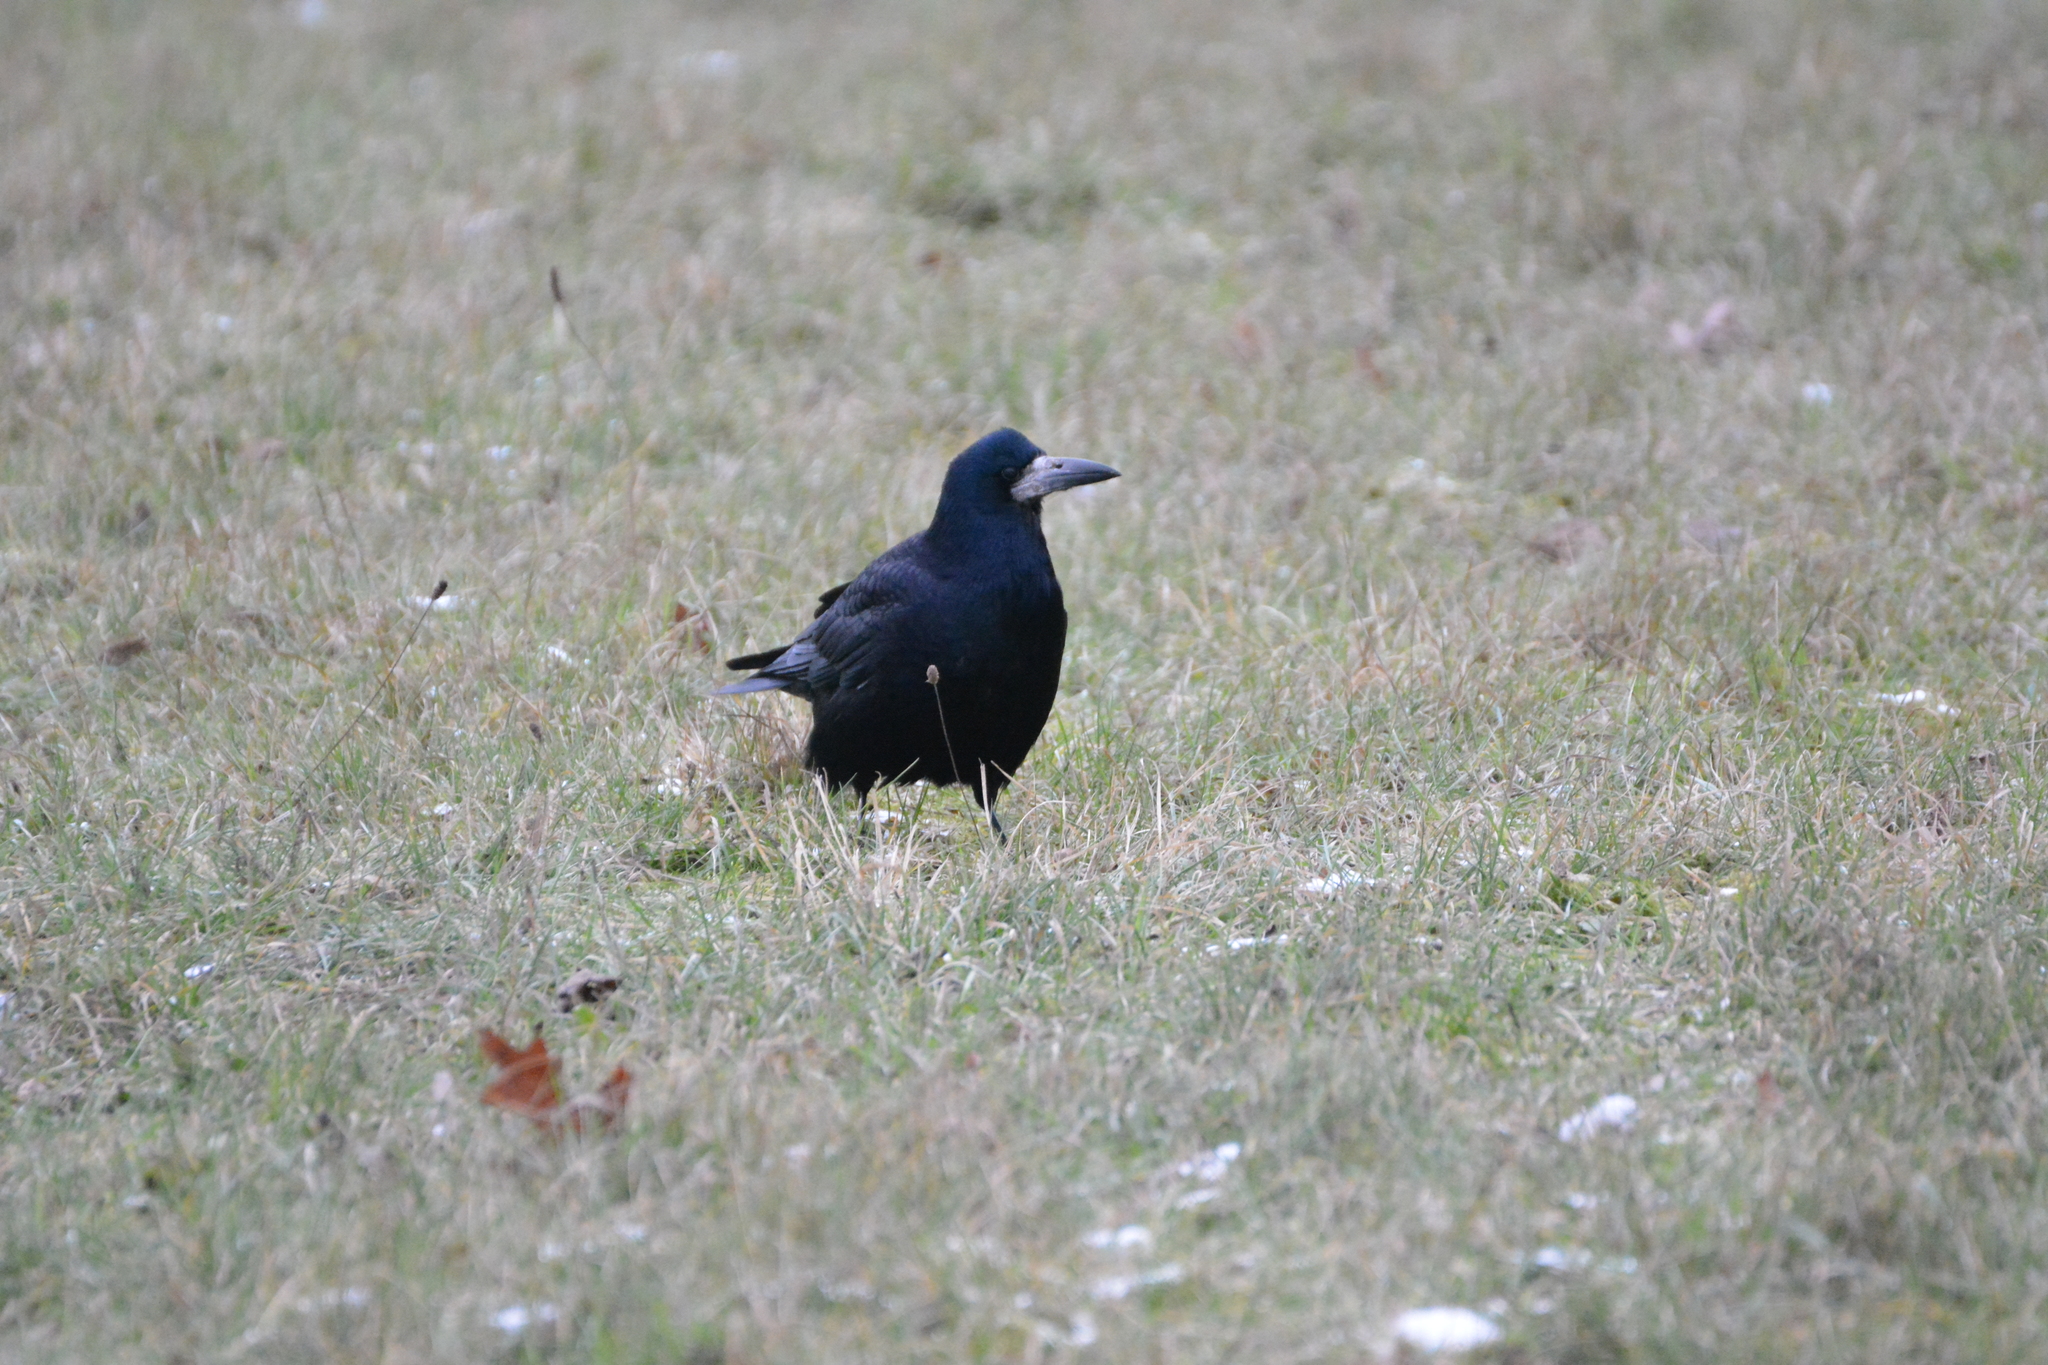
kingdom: Animalia
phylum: Chordata
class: Aves
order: Passeriformes
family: Corvidae
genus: Corvus
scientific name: Corvus frugilegus
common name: Rook
